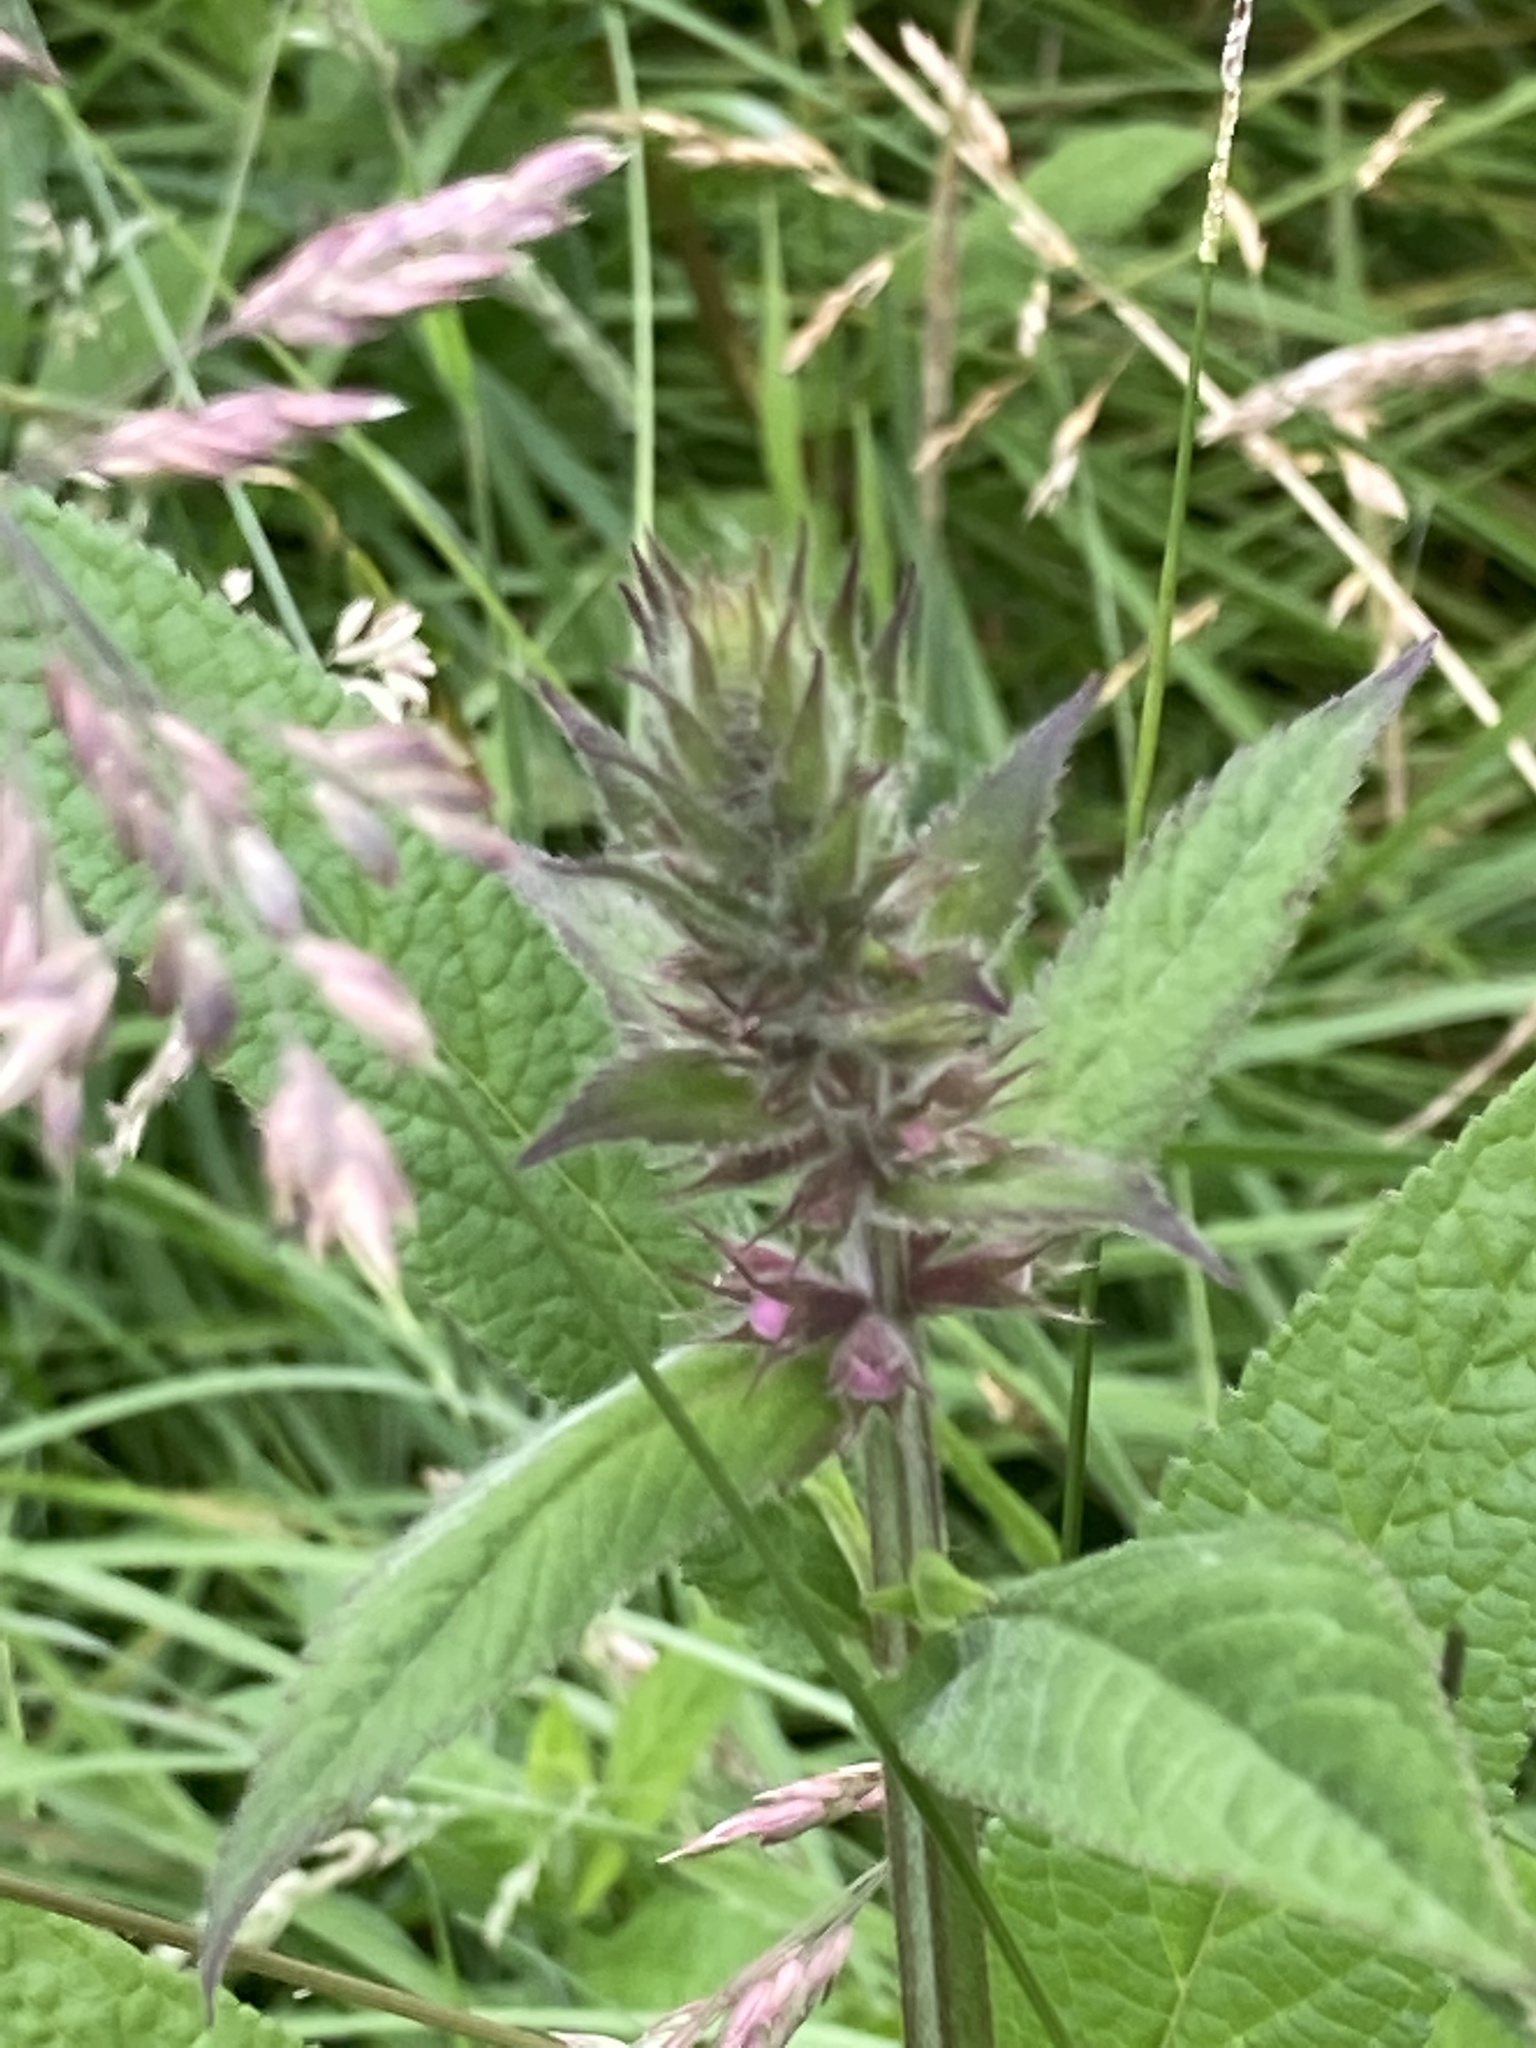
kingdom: Plantae
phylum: Tracheophyta
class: Magnoliopsida
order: Lamiales
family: Lamiaceae
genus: Stachys
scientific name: Stachys palustris
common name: Marsh woundwort
